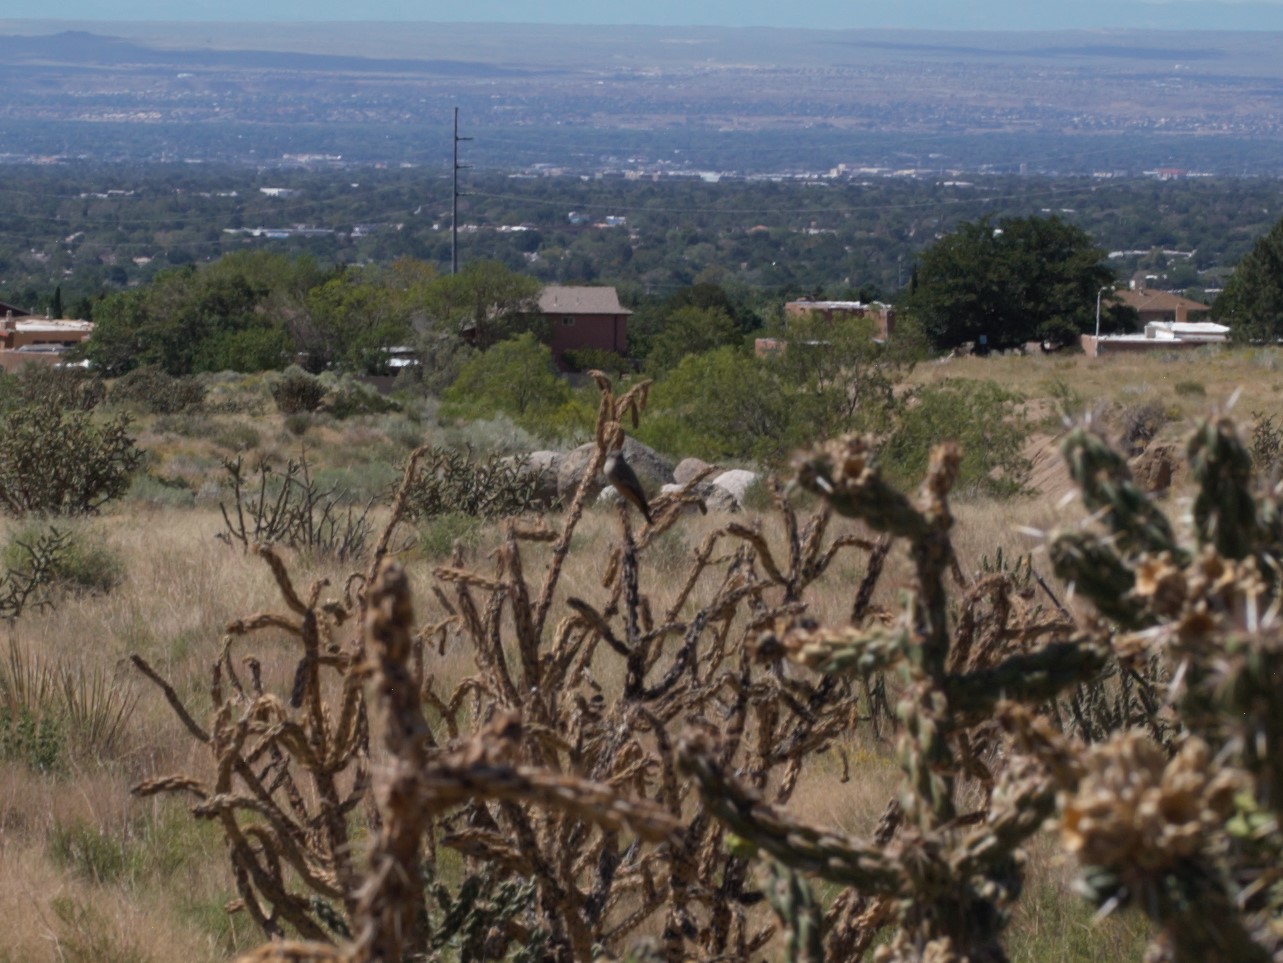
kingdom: Animalia
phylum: Chordata
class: Aves
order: Passeriformes
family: Tyrannidae
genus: Sayornis
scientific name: Sayornis saya
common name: Say's phoebe
